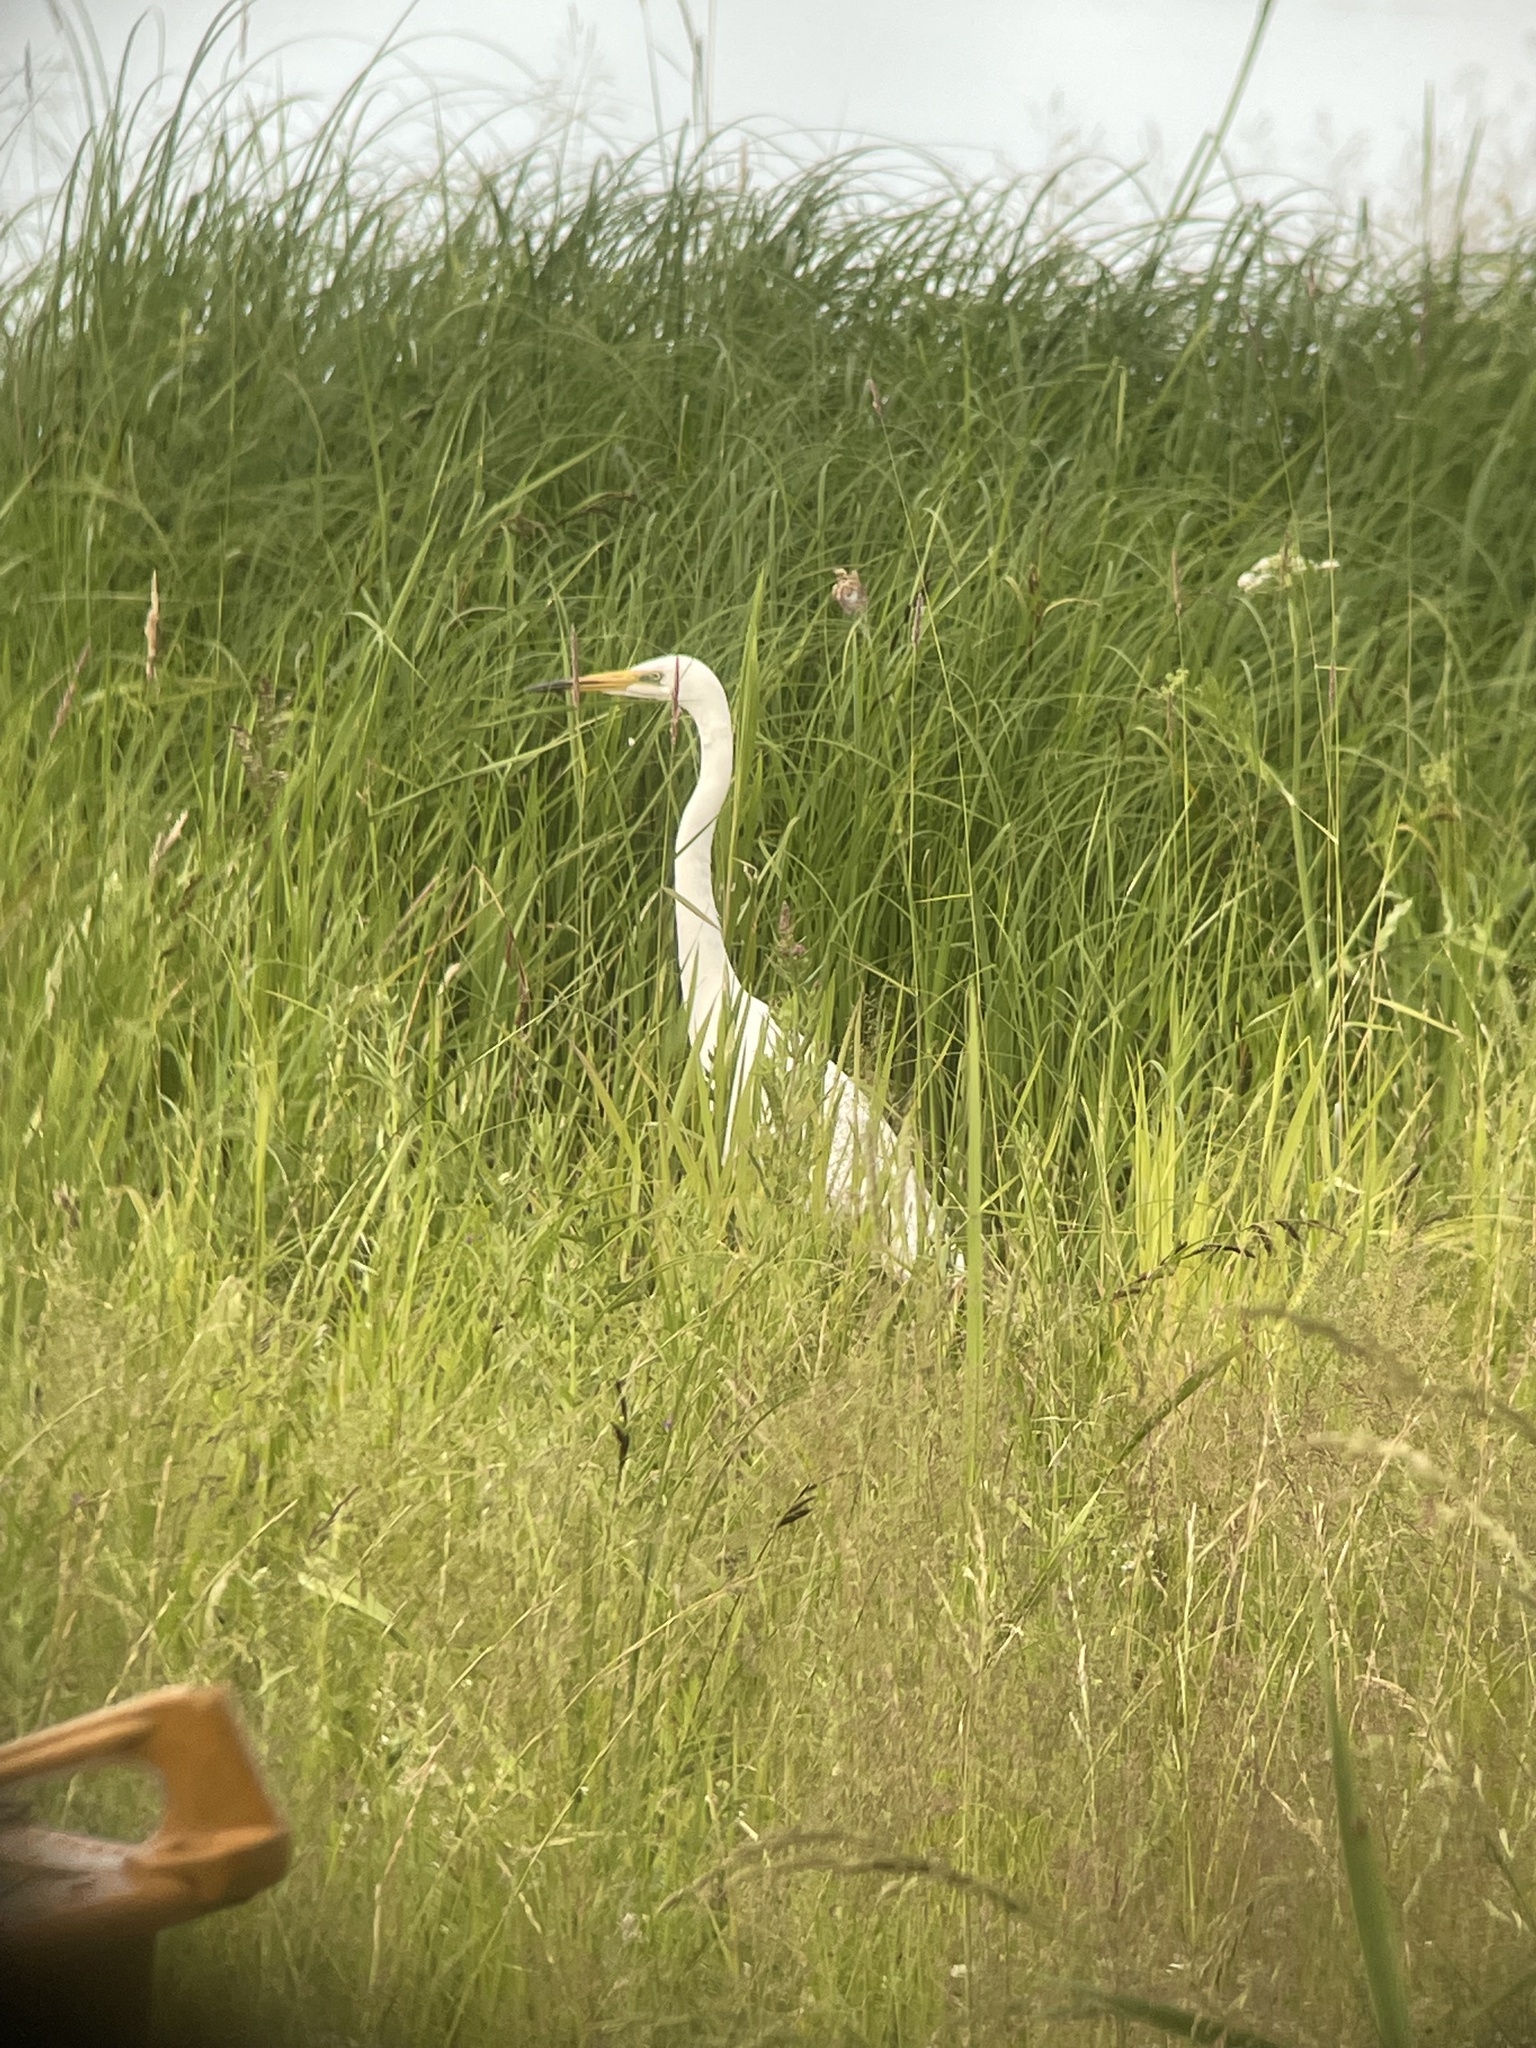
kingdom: Animalia
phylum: Chordata
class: Aves
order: Pelecaniformes
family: Ardeidae
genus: Ardea
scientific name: Ardea alba
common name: Great egret
